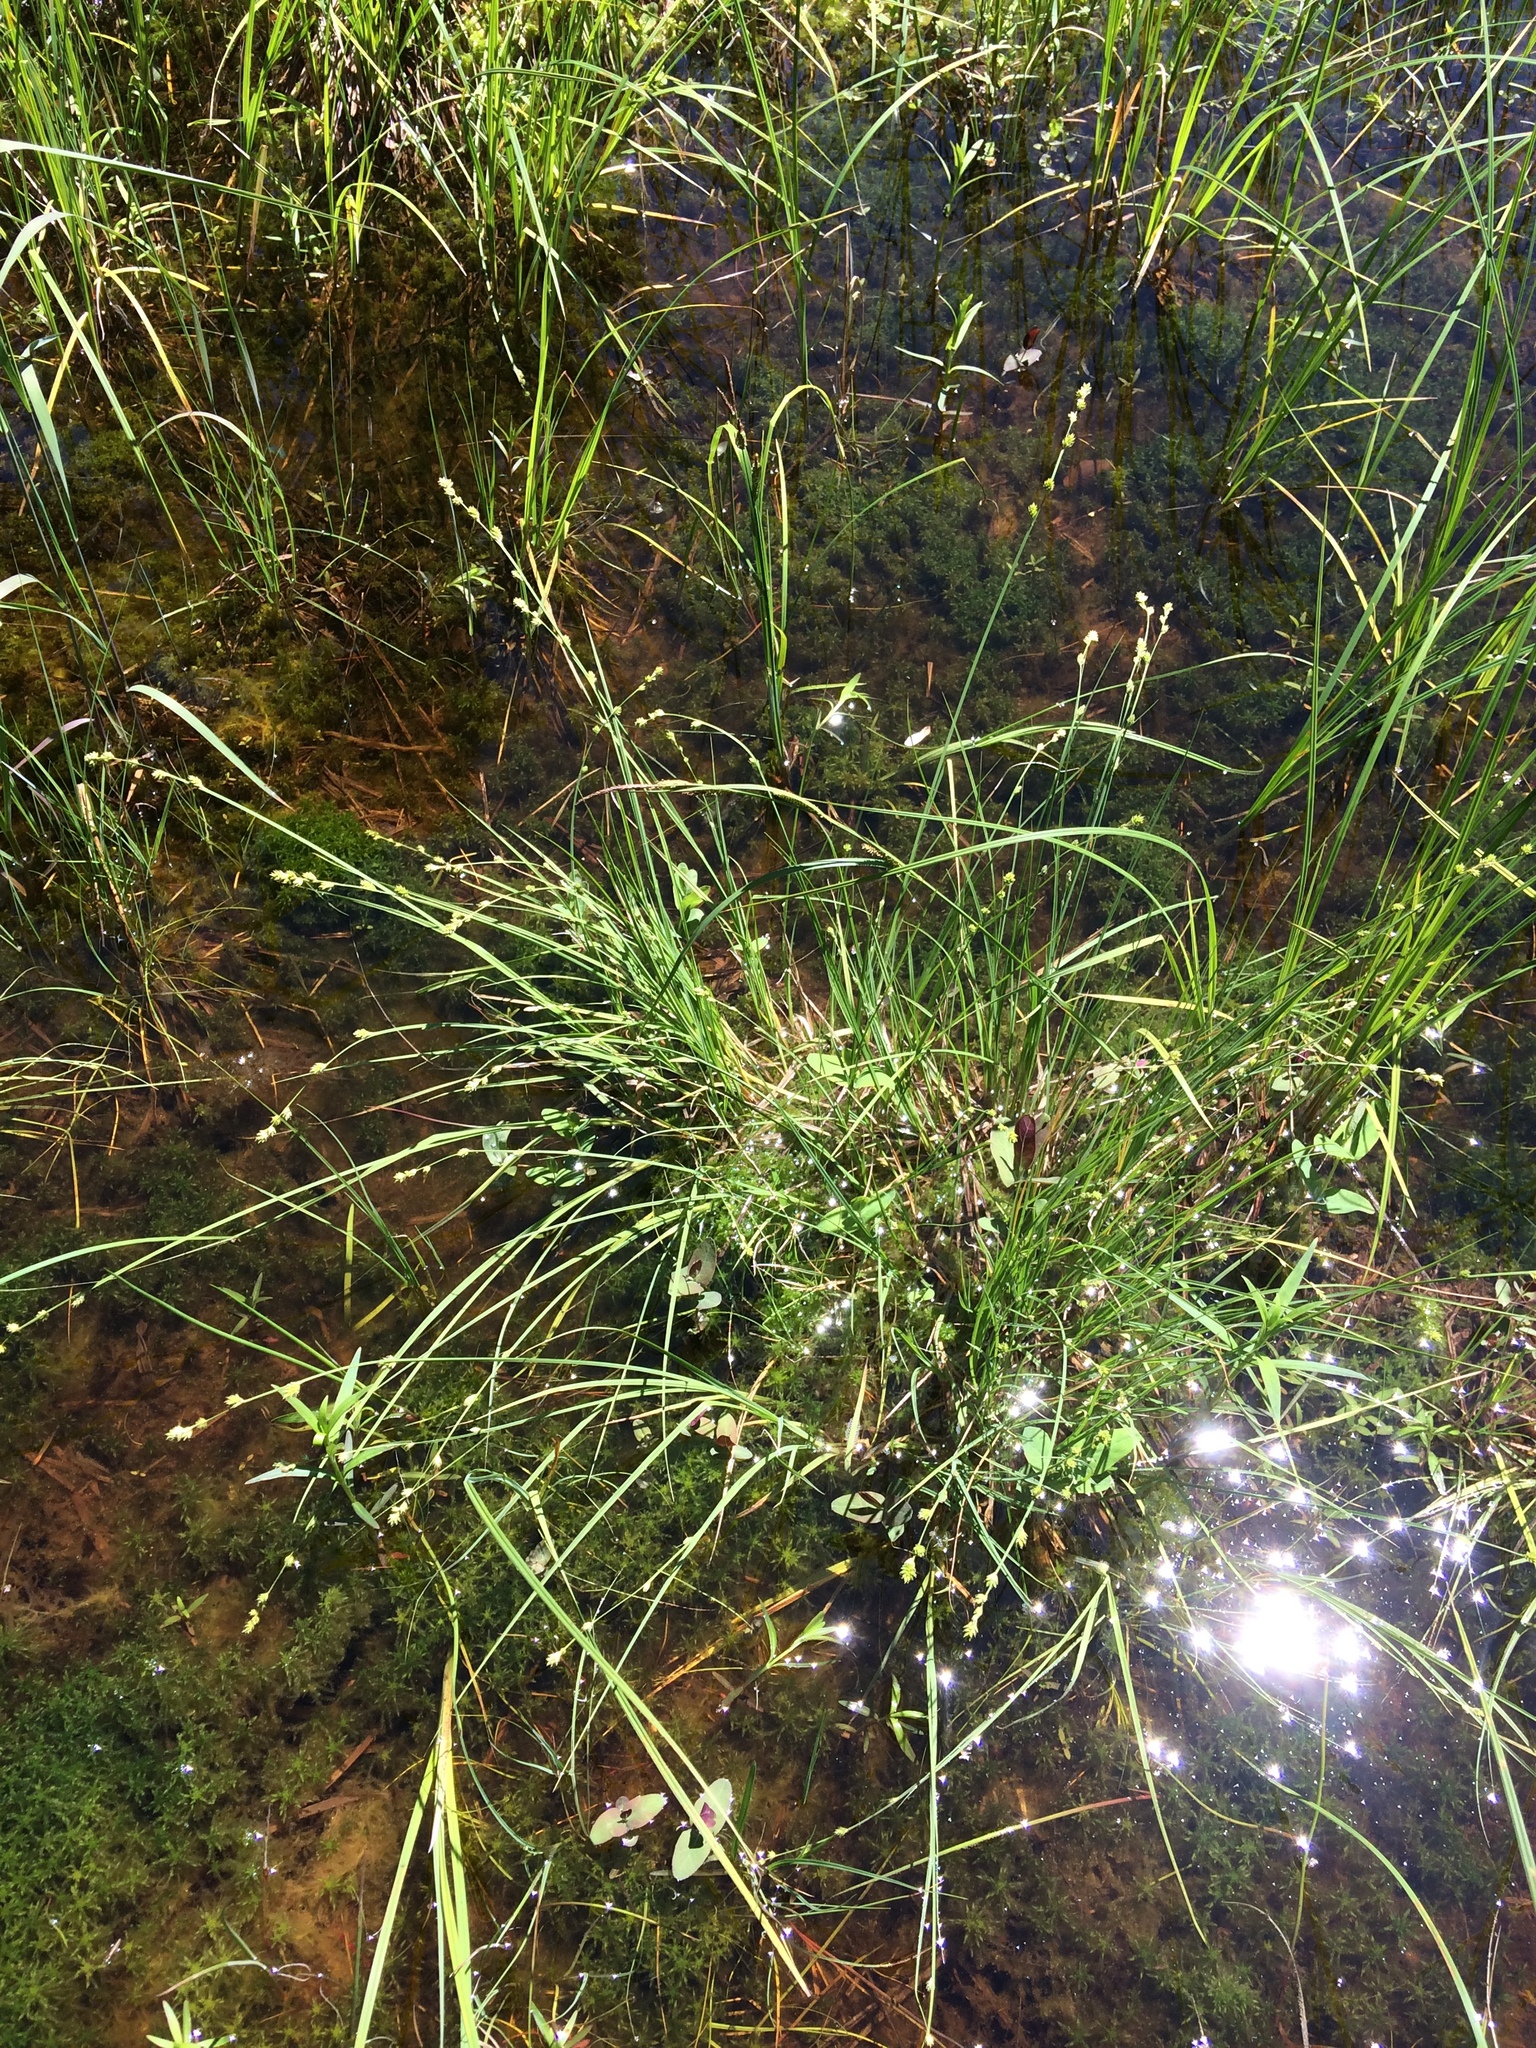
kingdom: Plantae
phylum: Tracheophyta
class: Liliopsida
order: Poales
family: Cyperaceae
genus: Carex
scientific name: Carex canescens
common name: White sedge
